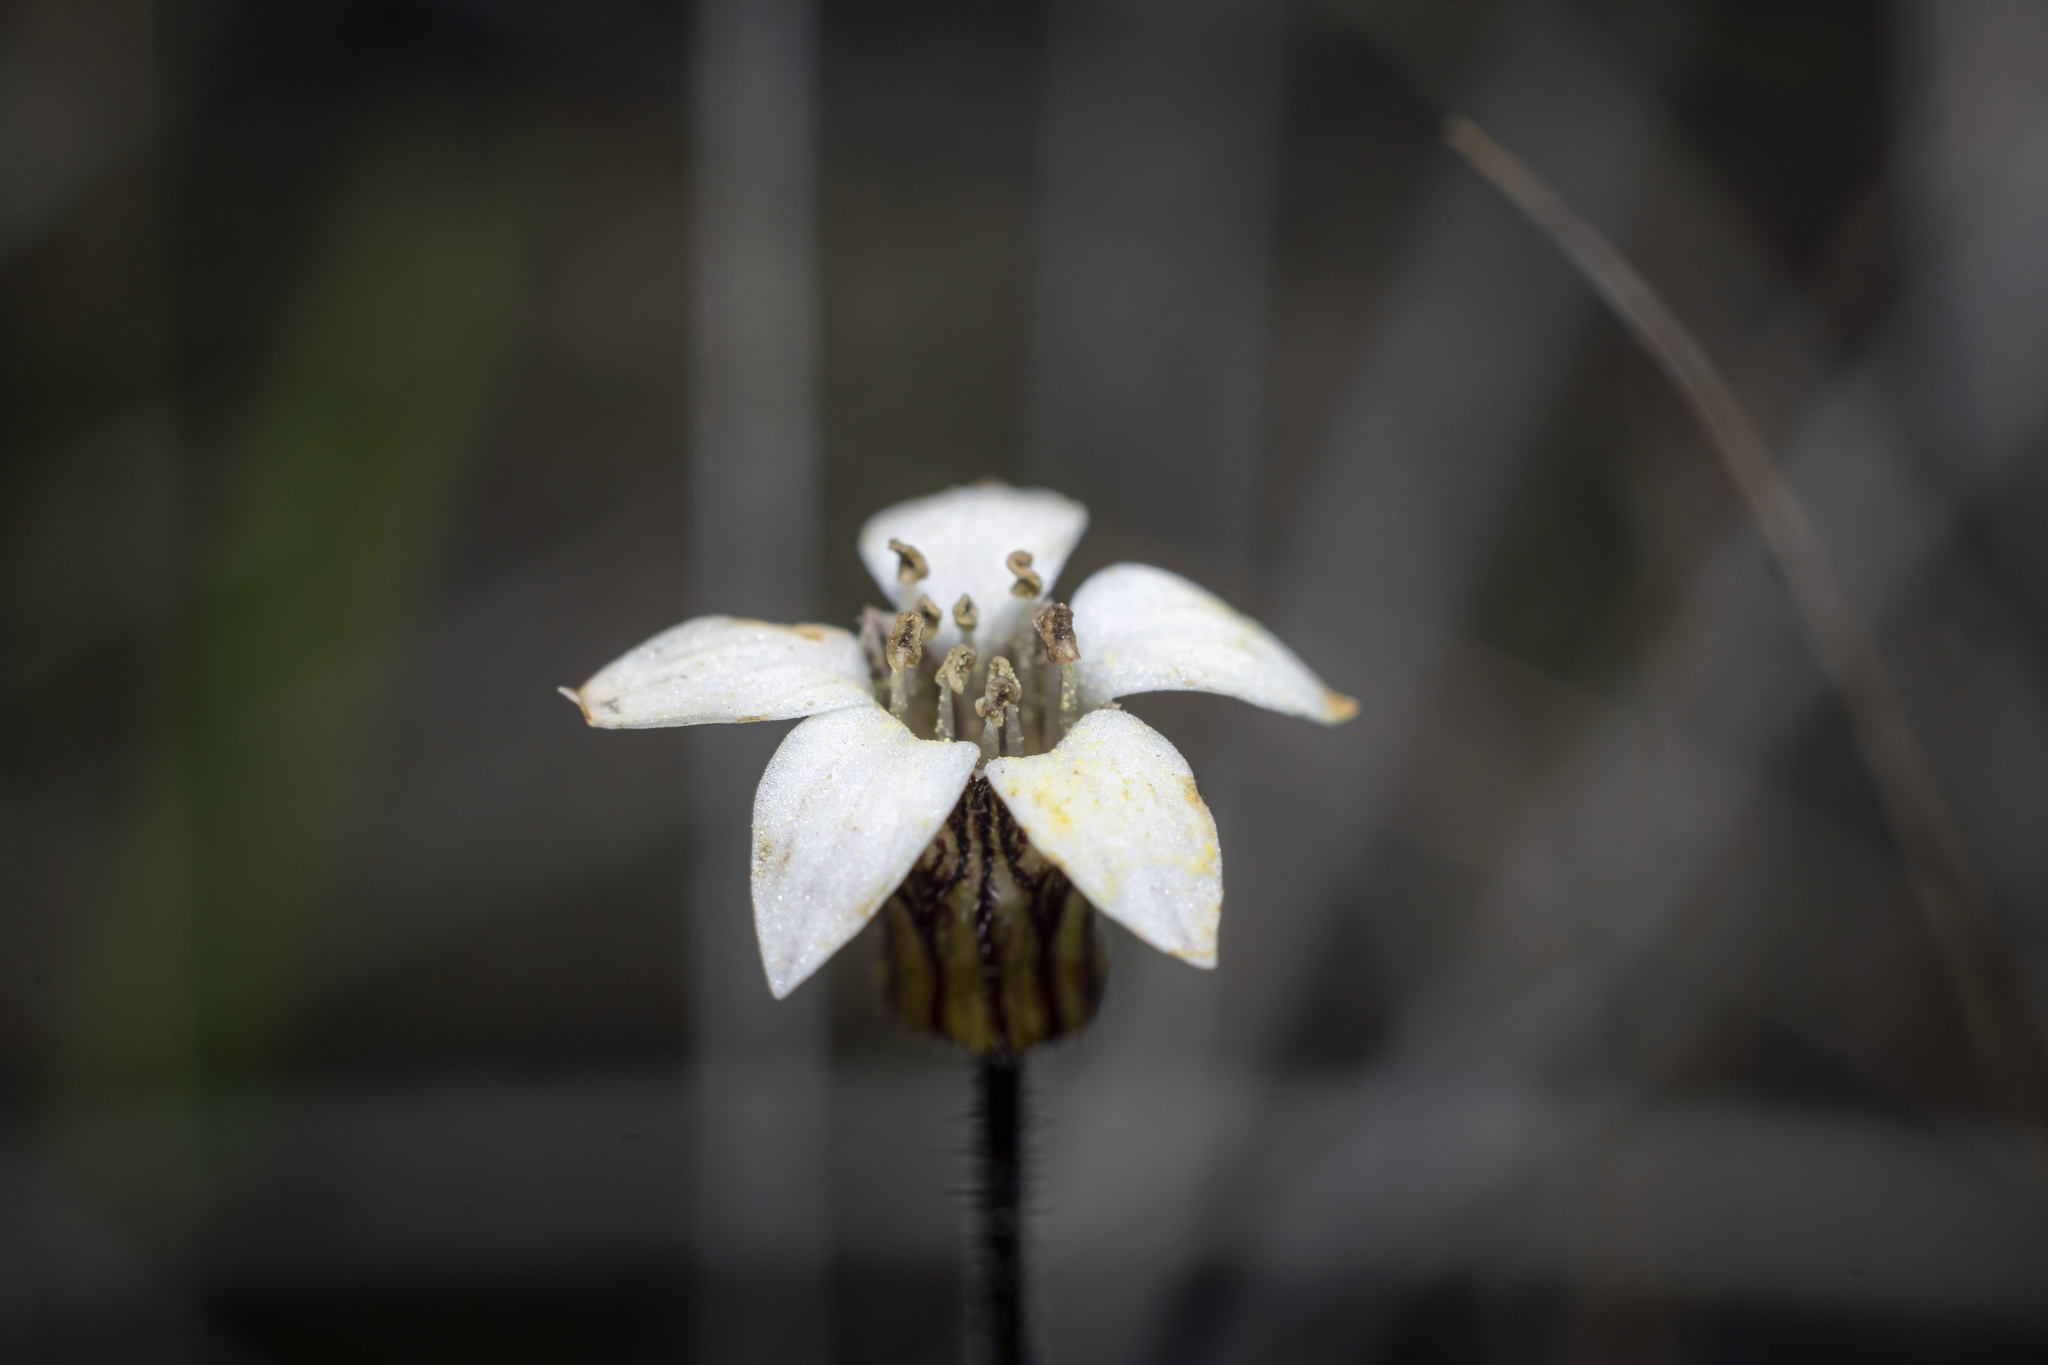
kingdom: Plantae
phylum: Tracheophyta
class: Magnoliopsida
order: Saxifragales
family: Saxifragaceae
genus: Jepsonia
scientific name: Jepsonia parryi
